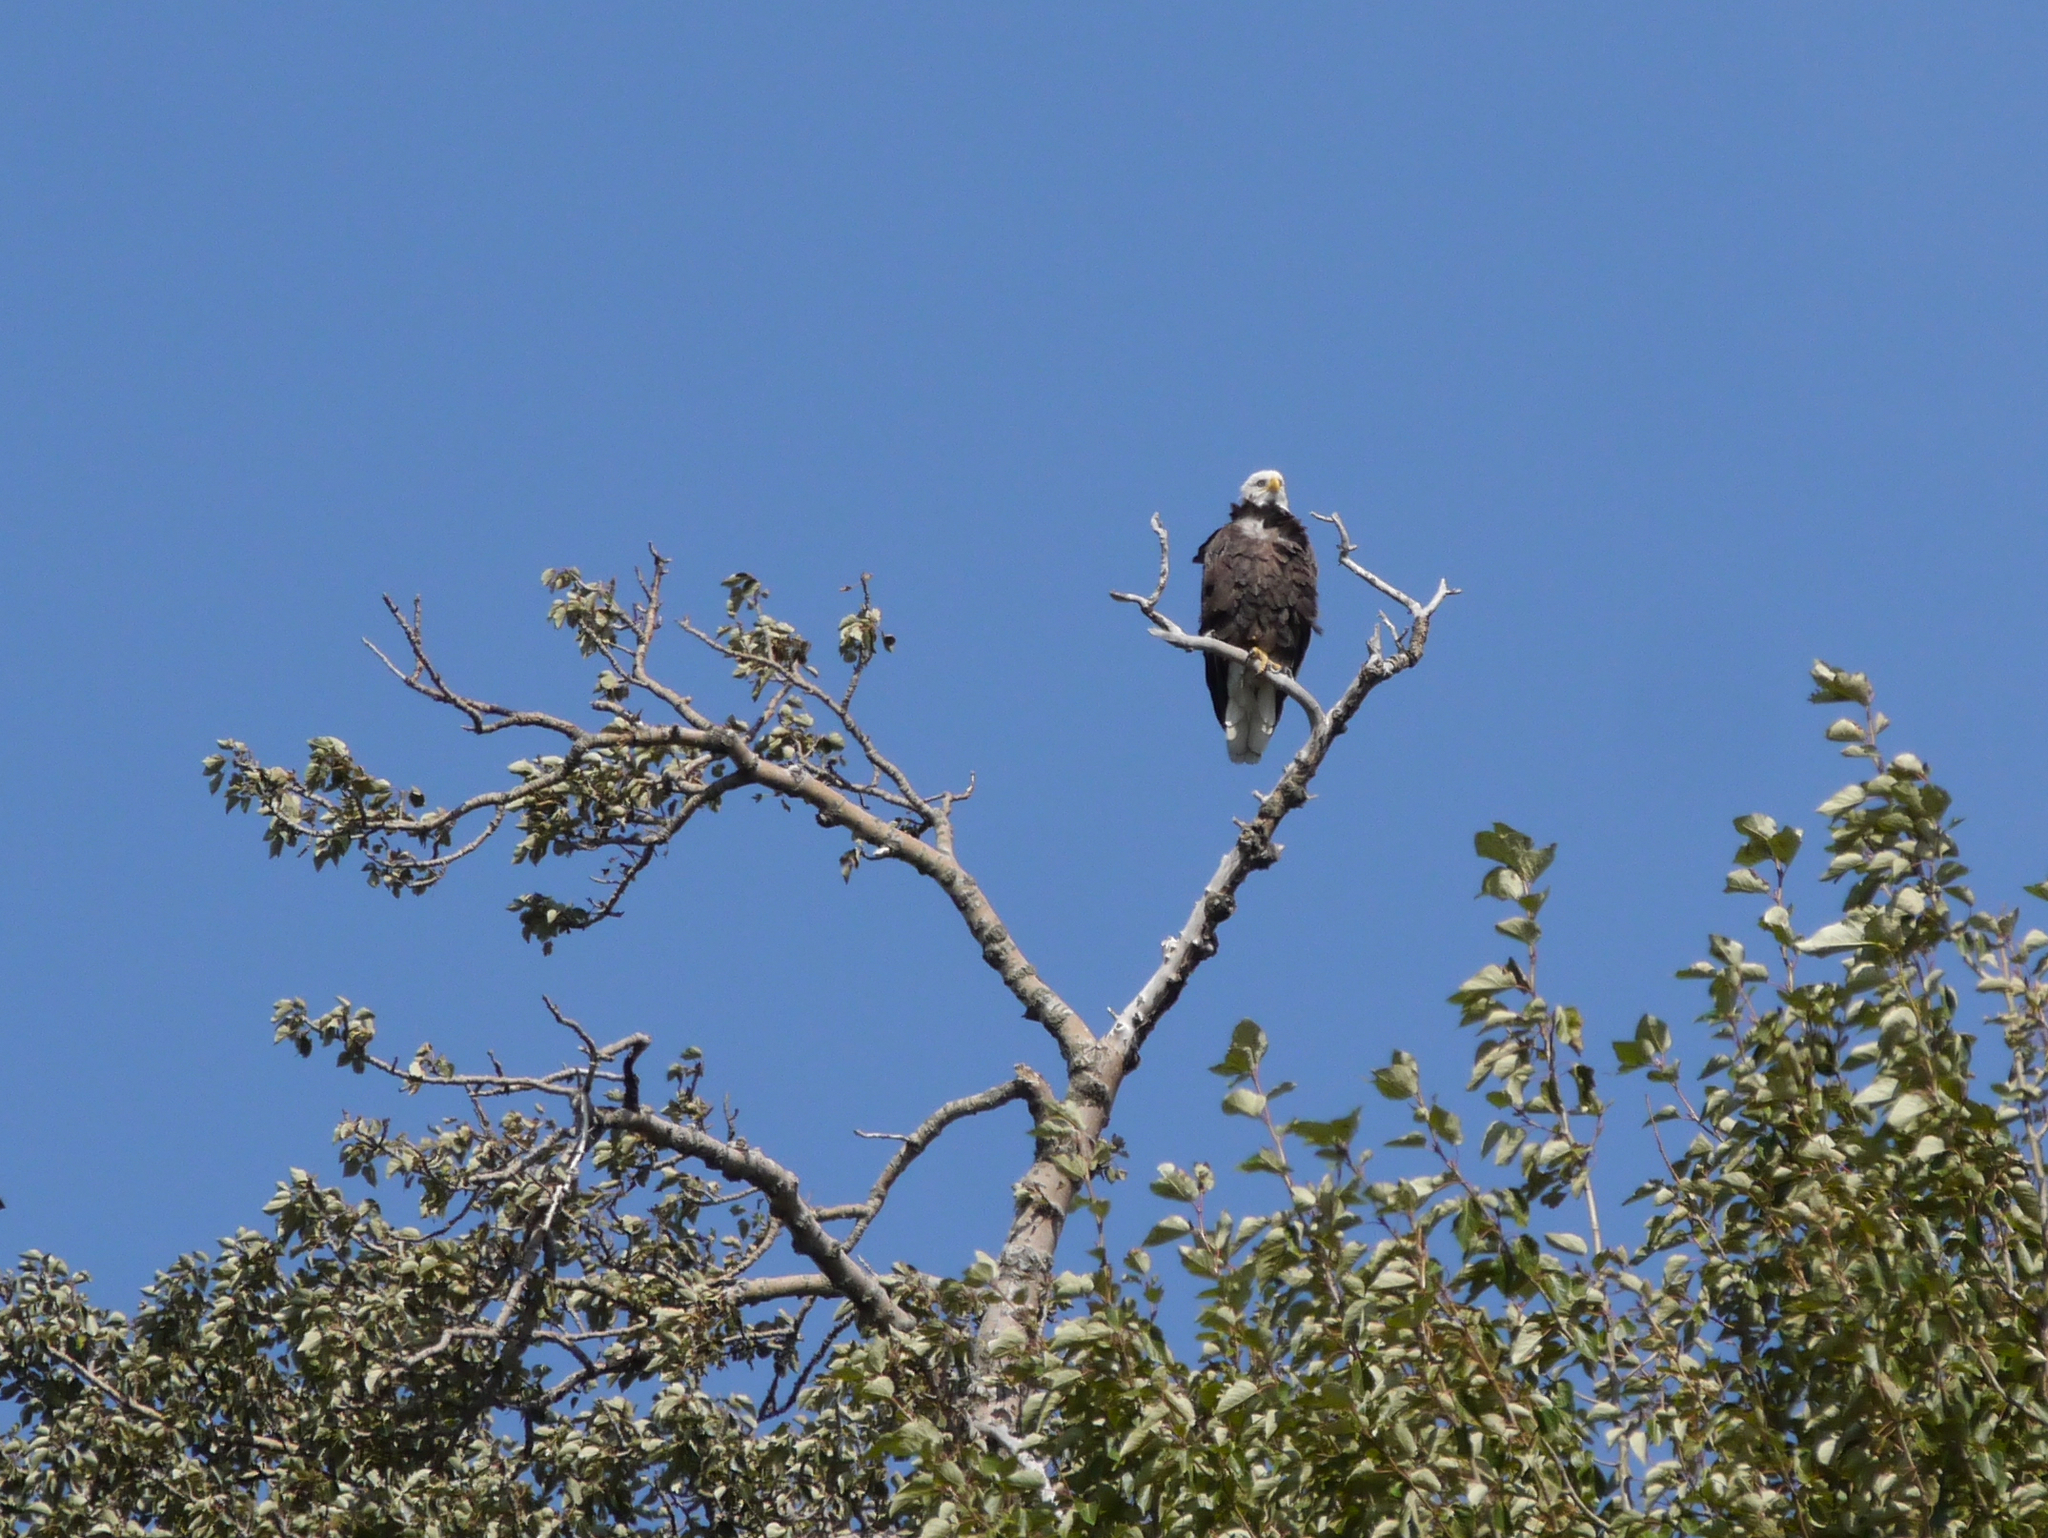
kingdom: Animalia
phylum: Chordata
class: Aves
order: Accipitriformes
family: Accipitridae
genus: Haliaeetus
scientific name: Haliaeetus leucocephalus
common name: Bald eagle
